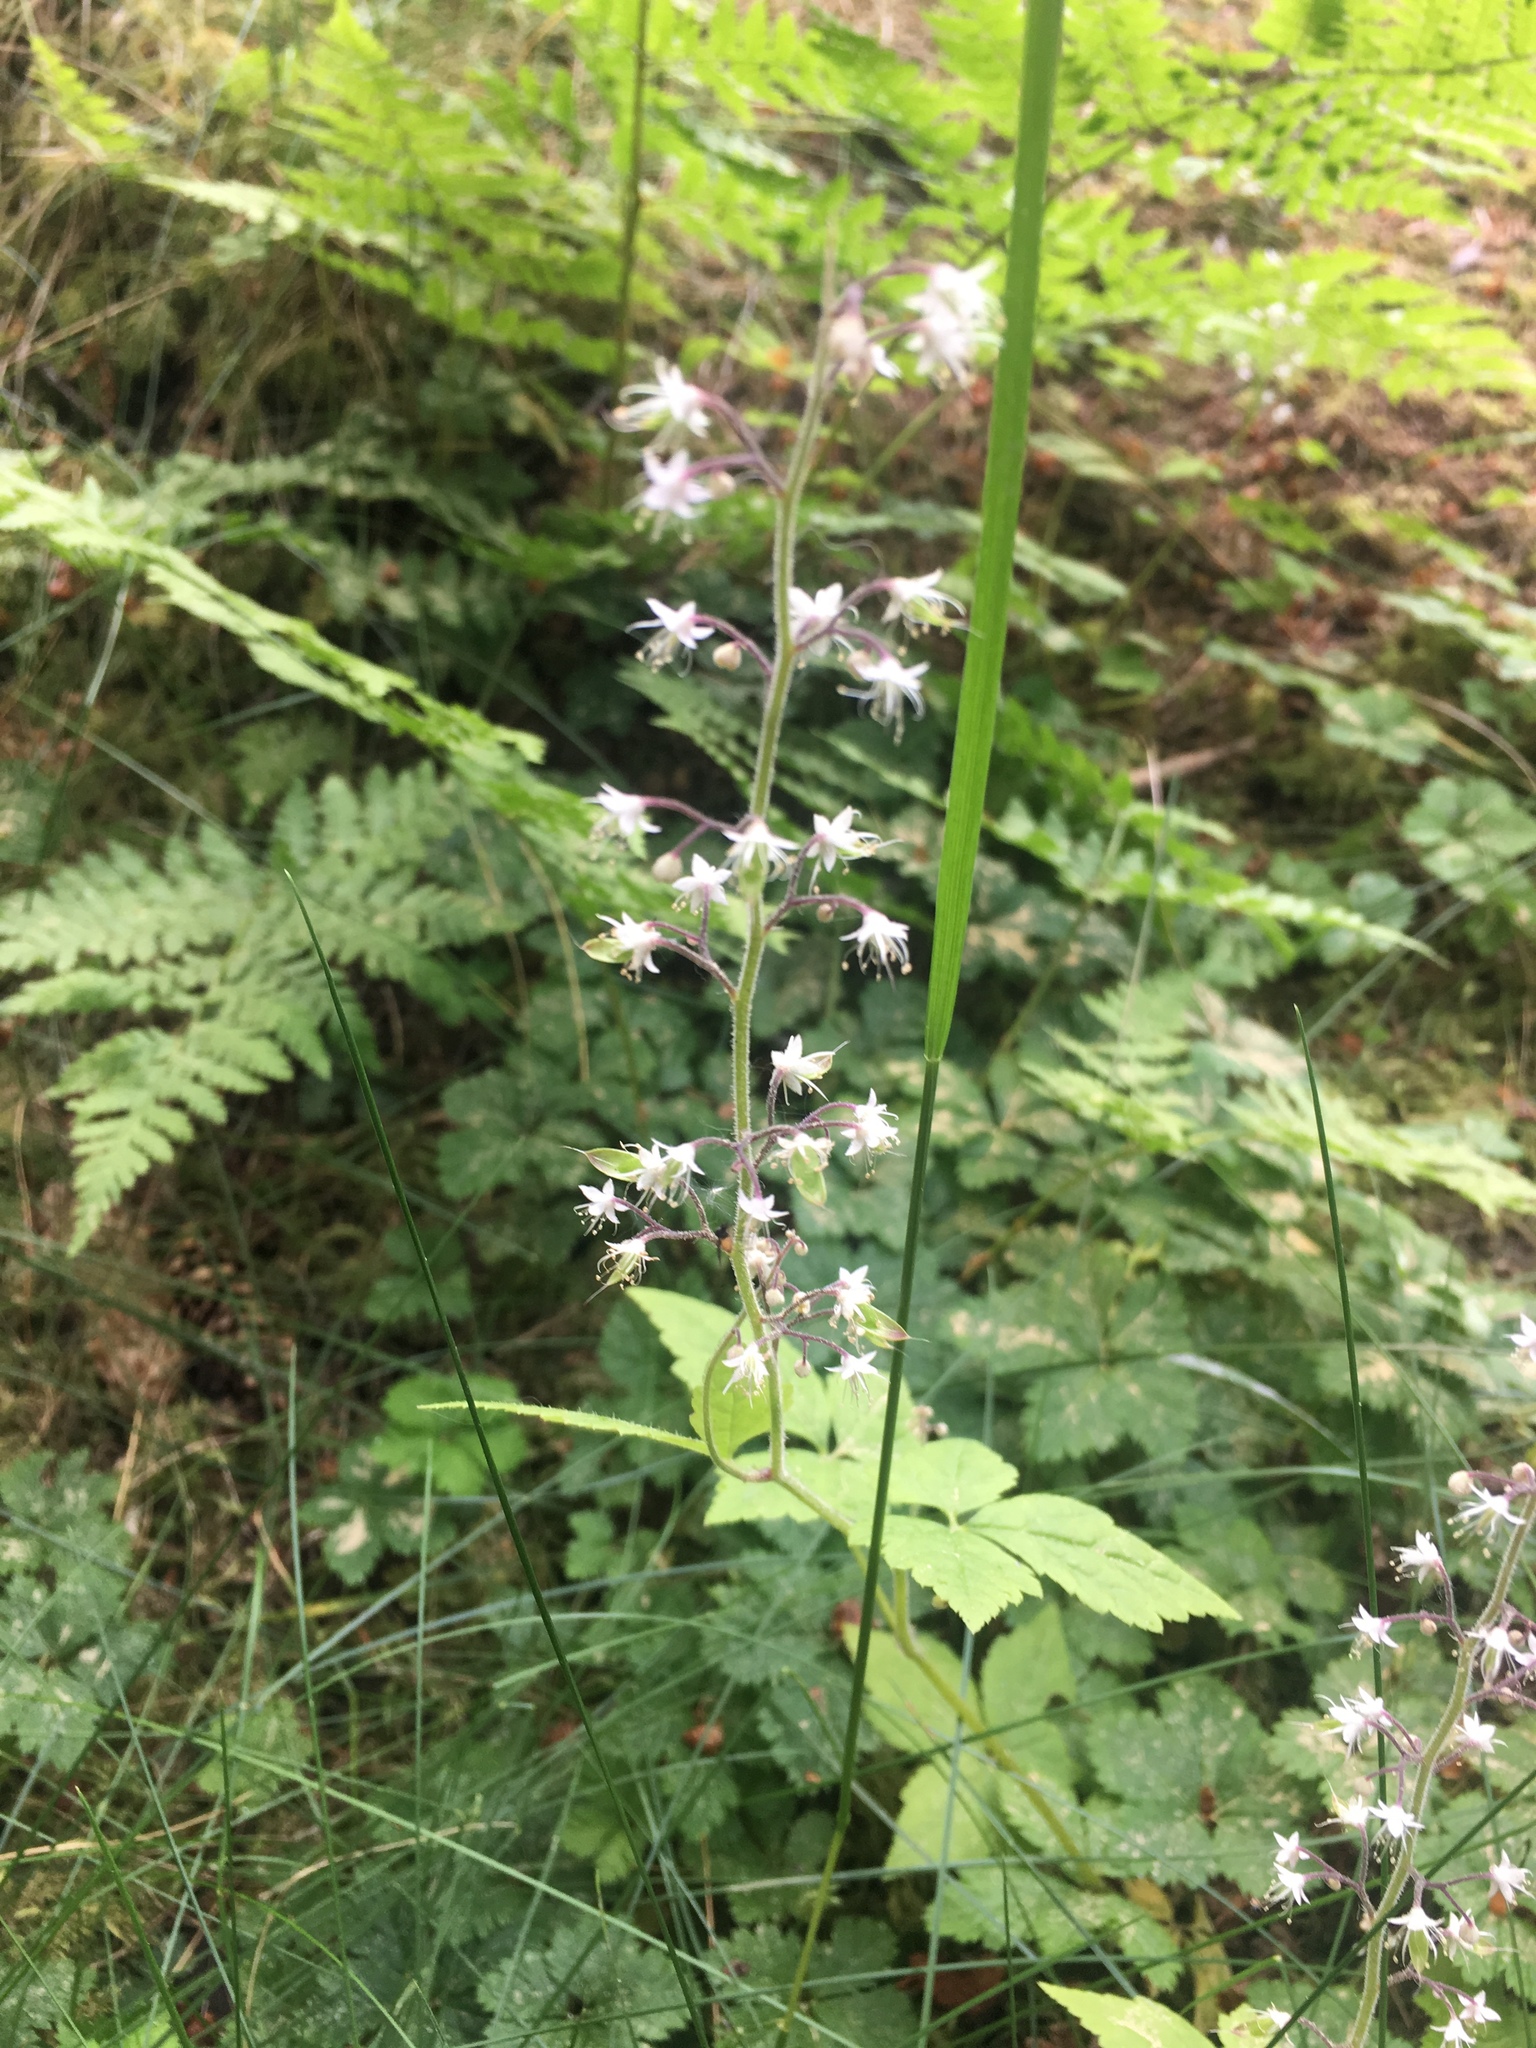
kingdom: Plantae
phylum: Tracheophyta
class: Magnoliopsida
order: Saxifragales
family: Saxifragaceae
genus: Tiarella
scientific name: Tiarella trifoliata
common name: Sugar-scoop
